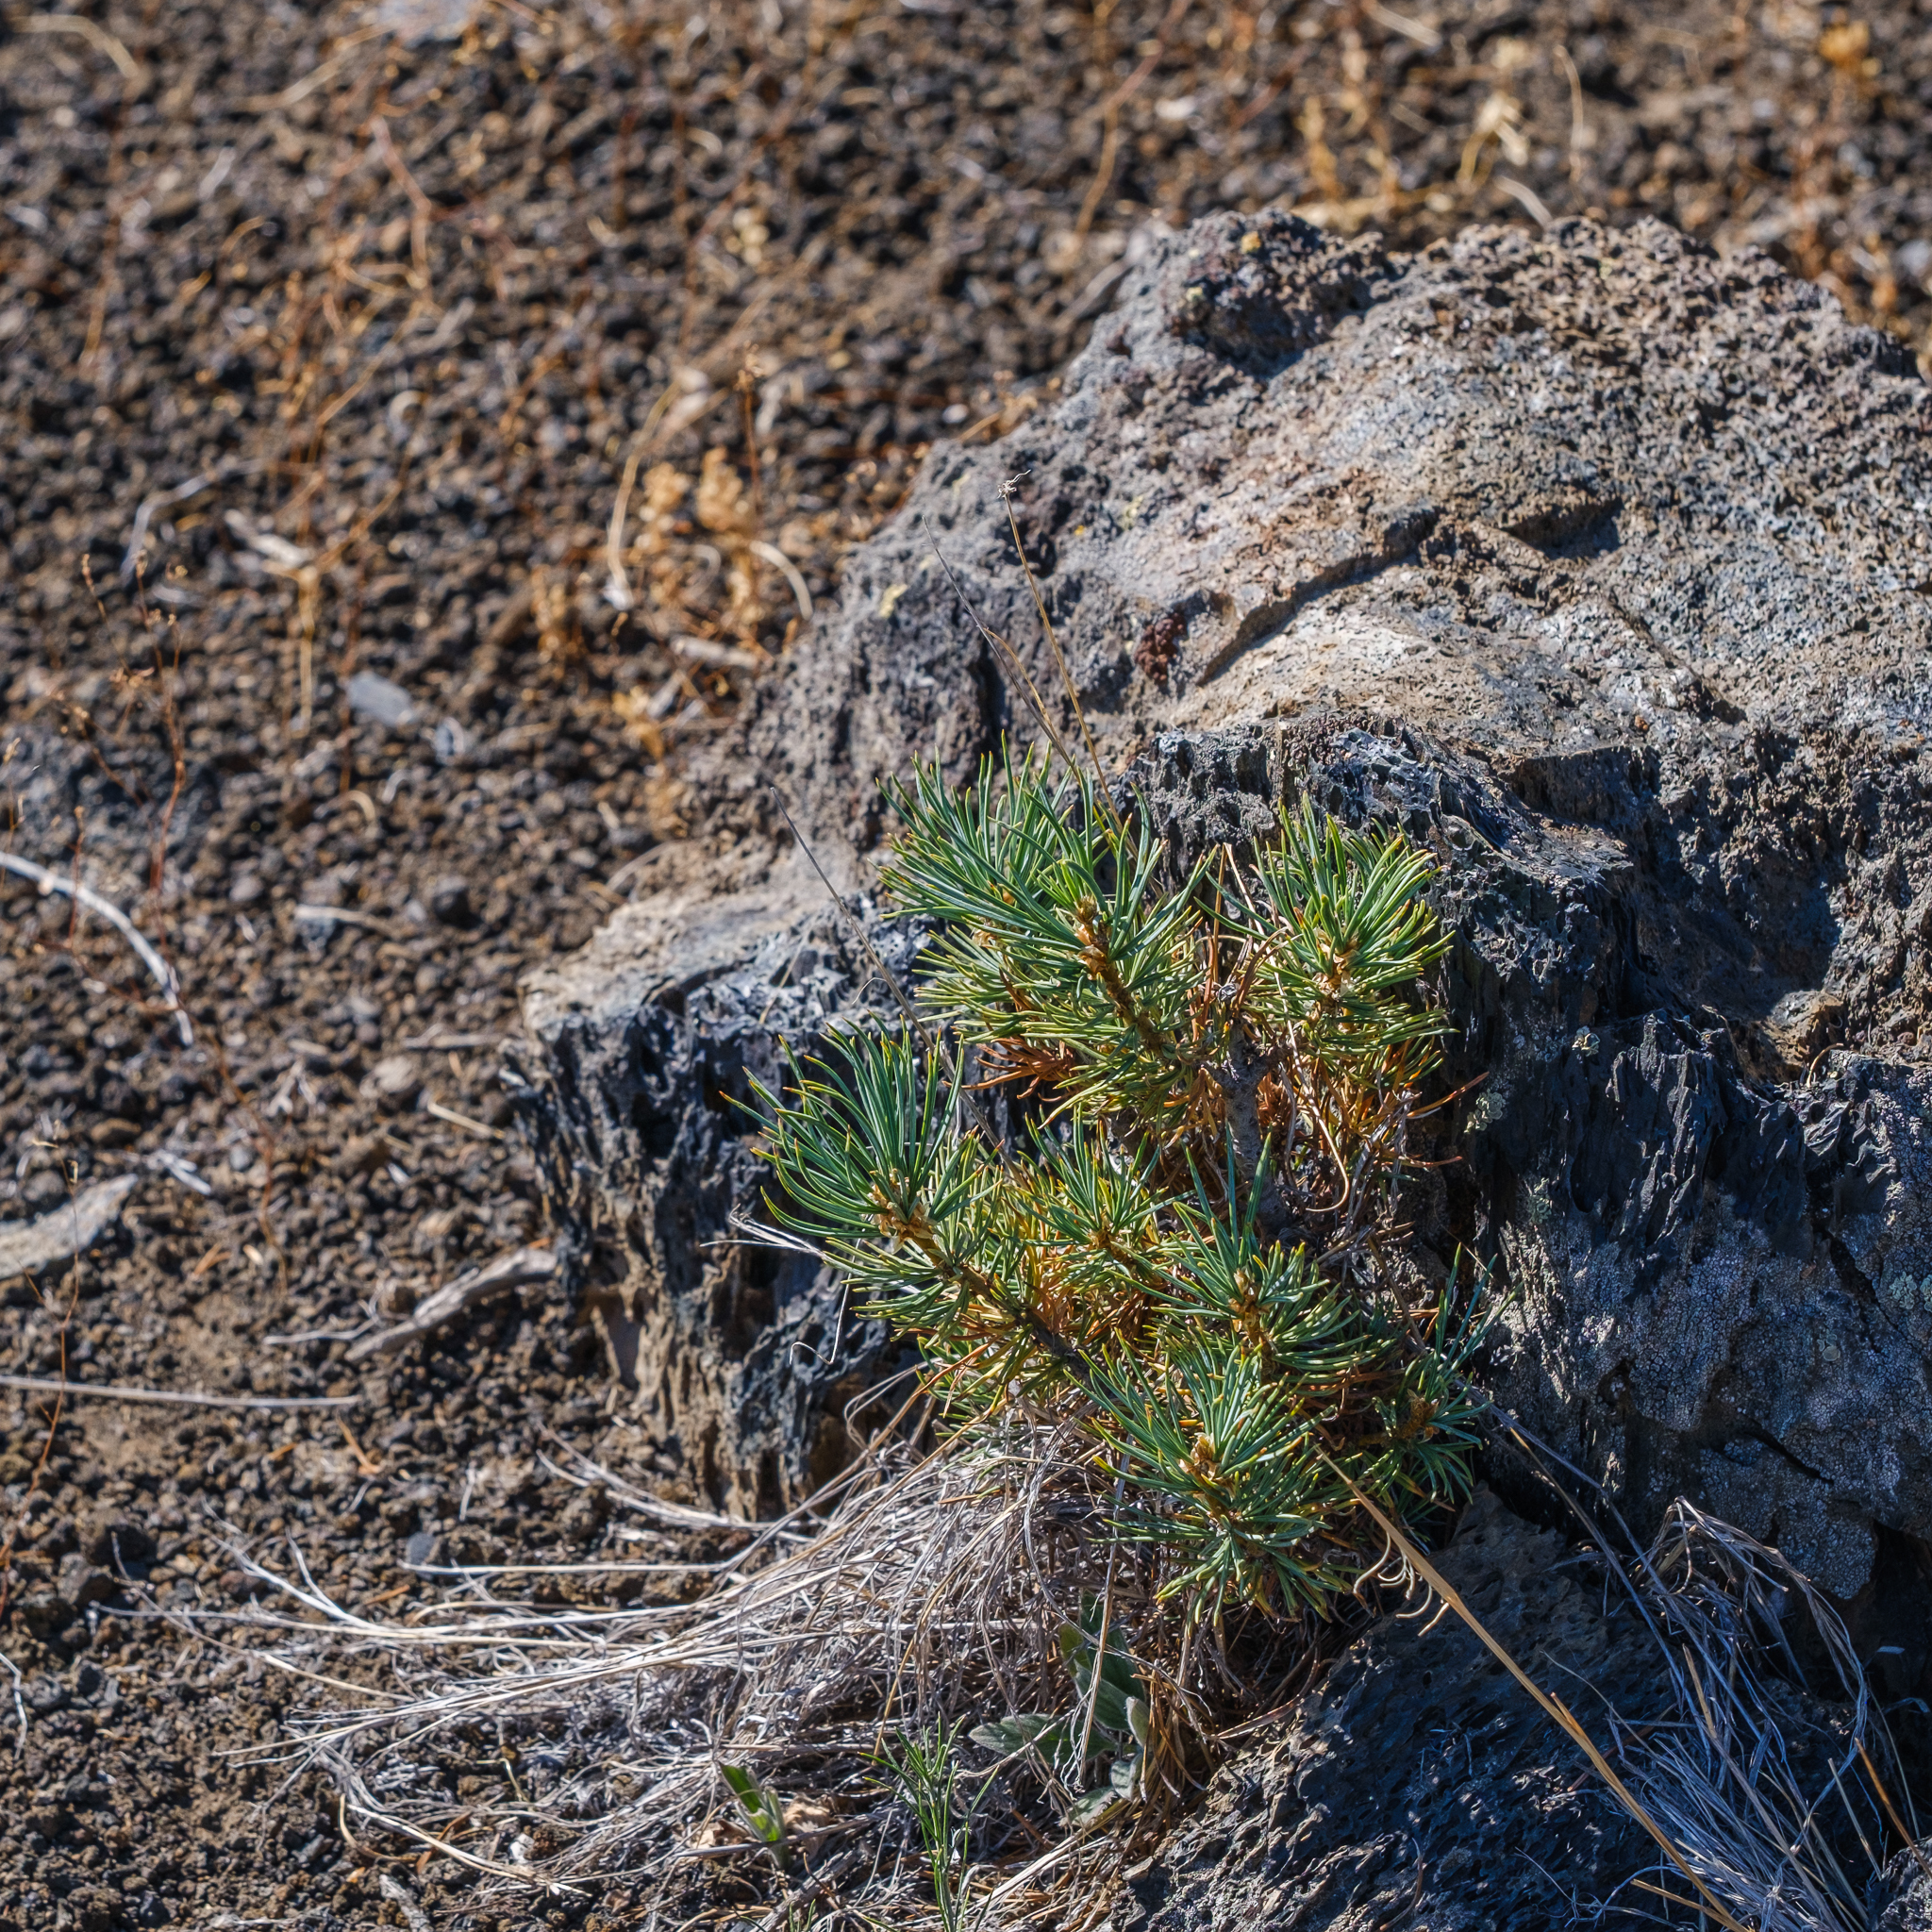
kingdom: Plantae
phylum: Tracheophyta
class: Pinopsida
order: Pinales
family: Pinaceae
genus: Pinus
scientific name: Pinus flexilis
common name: Limber pine
